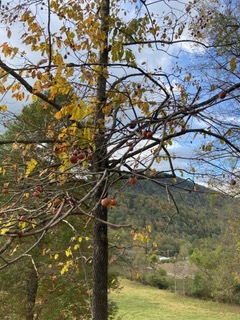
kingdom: Plantae
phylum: Tracheophyta
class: Magnoliopsida
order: Ericales
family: Ebenaceae
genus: Diospyros
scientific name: Diospyros virginiana
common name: Persimmon
